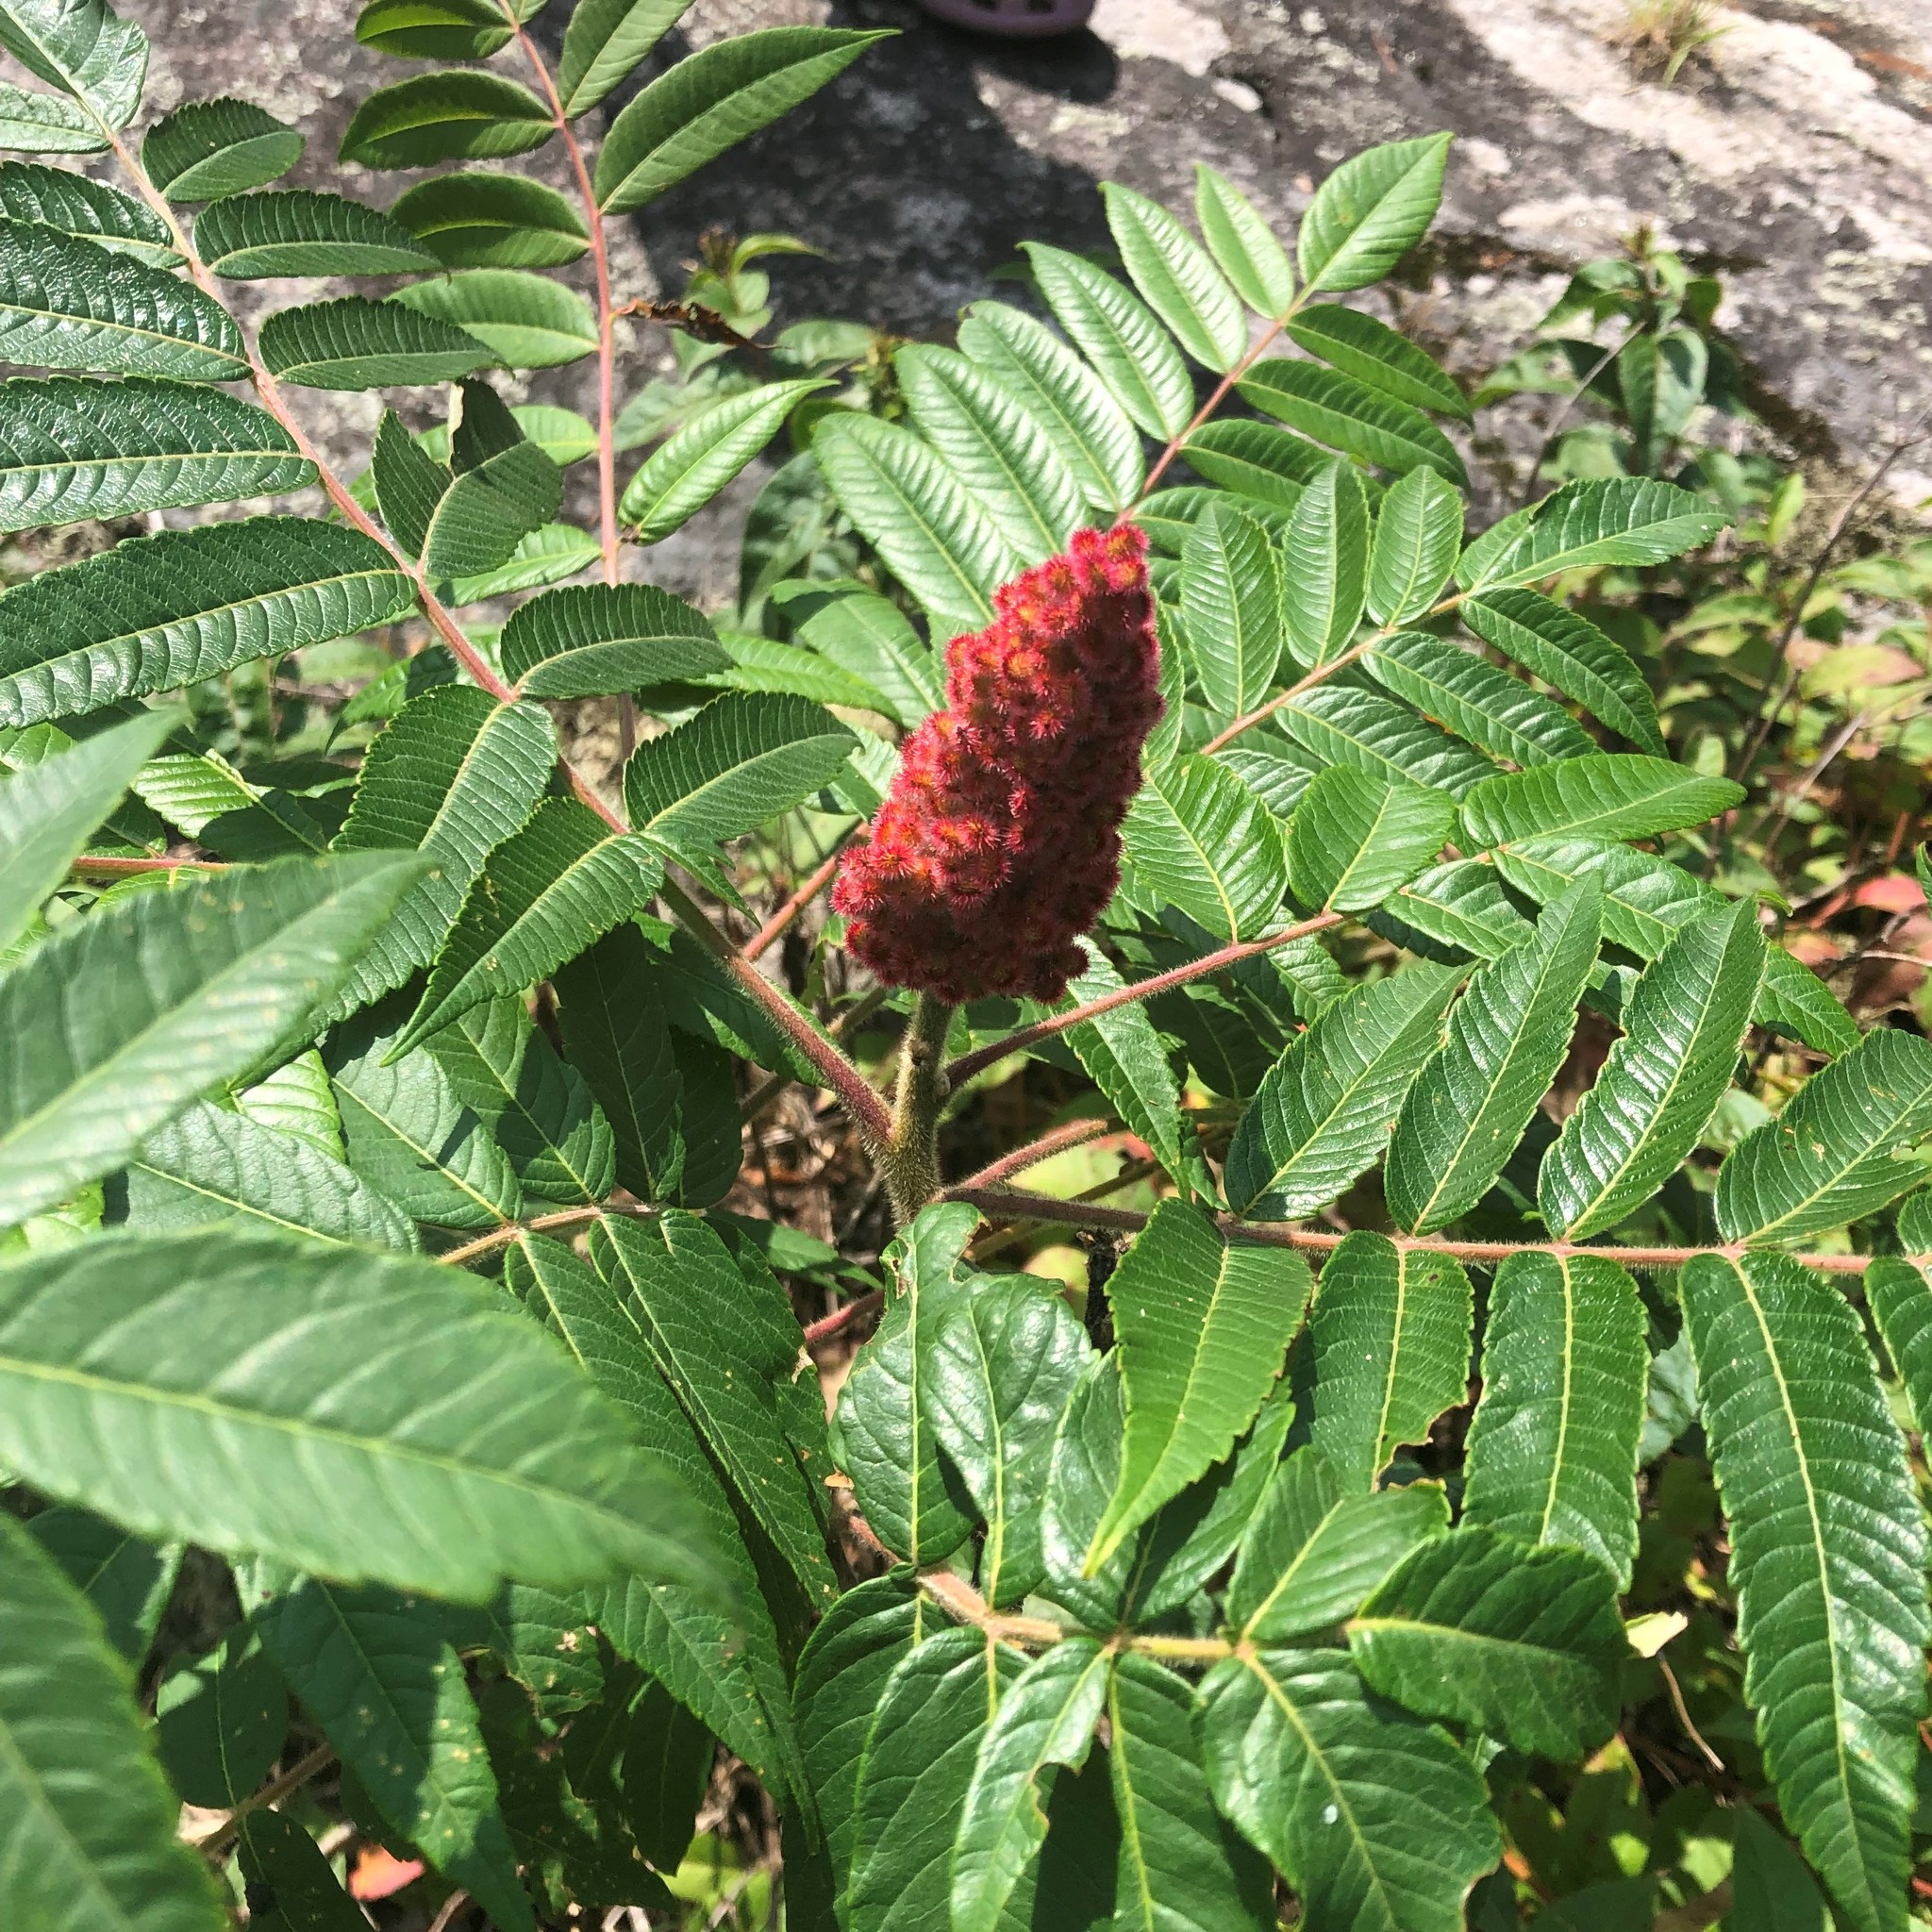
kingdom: Plantae
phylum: Tracheophyta
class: Magnoliopsida
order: Sapindales
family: Anacardiaceae
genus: Rhus
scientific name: Rhus typhina
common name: Staghorn sumac
